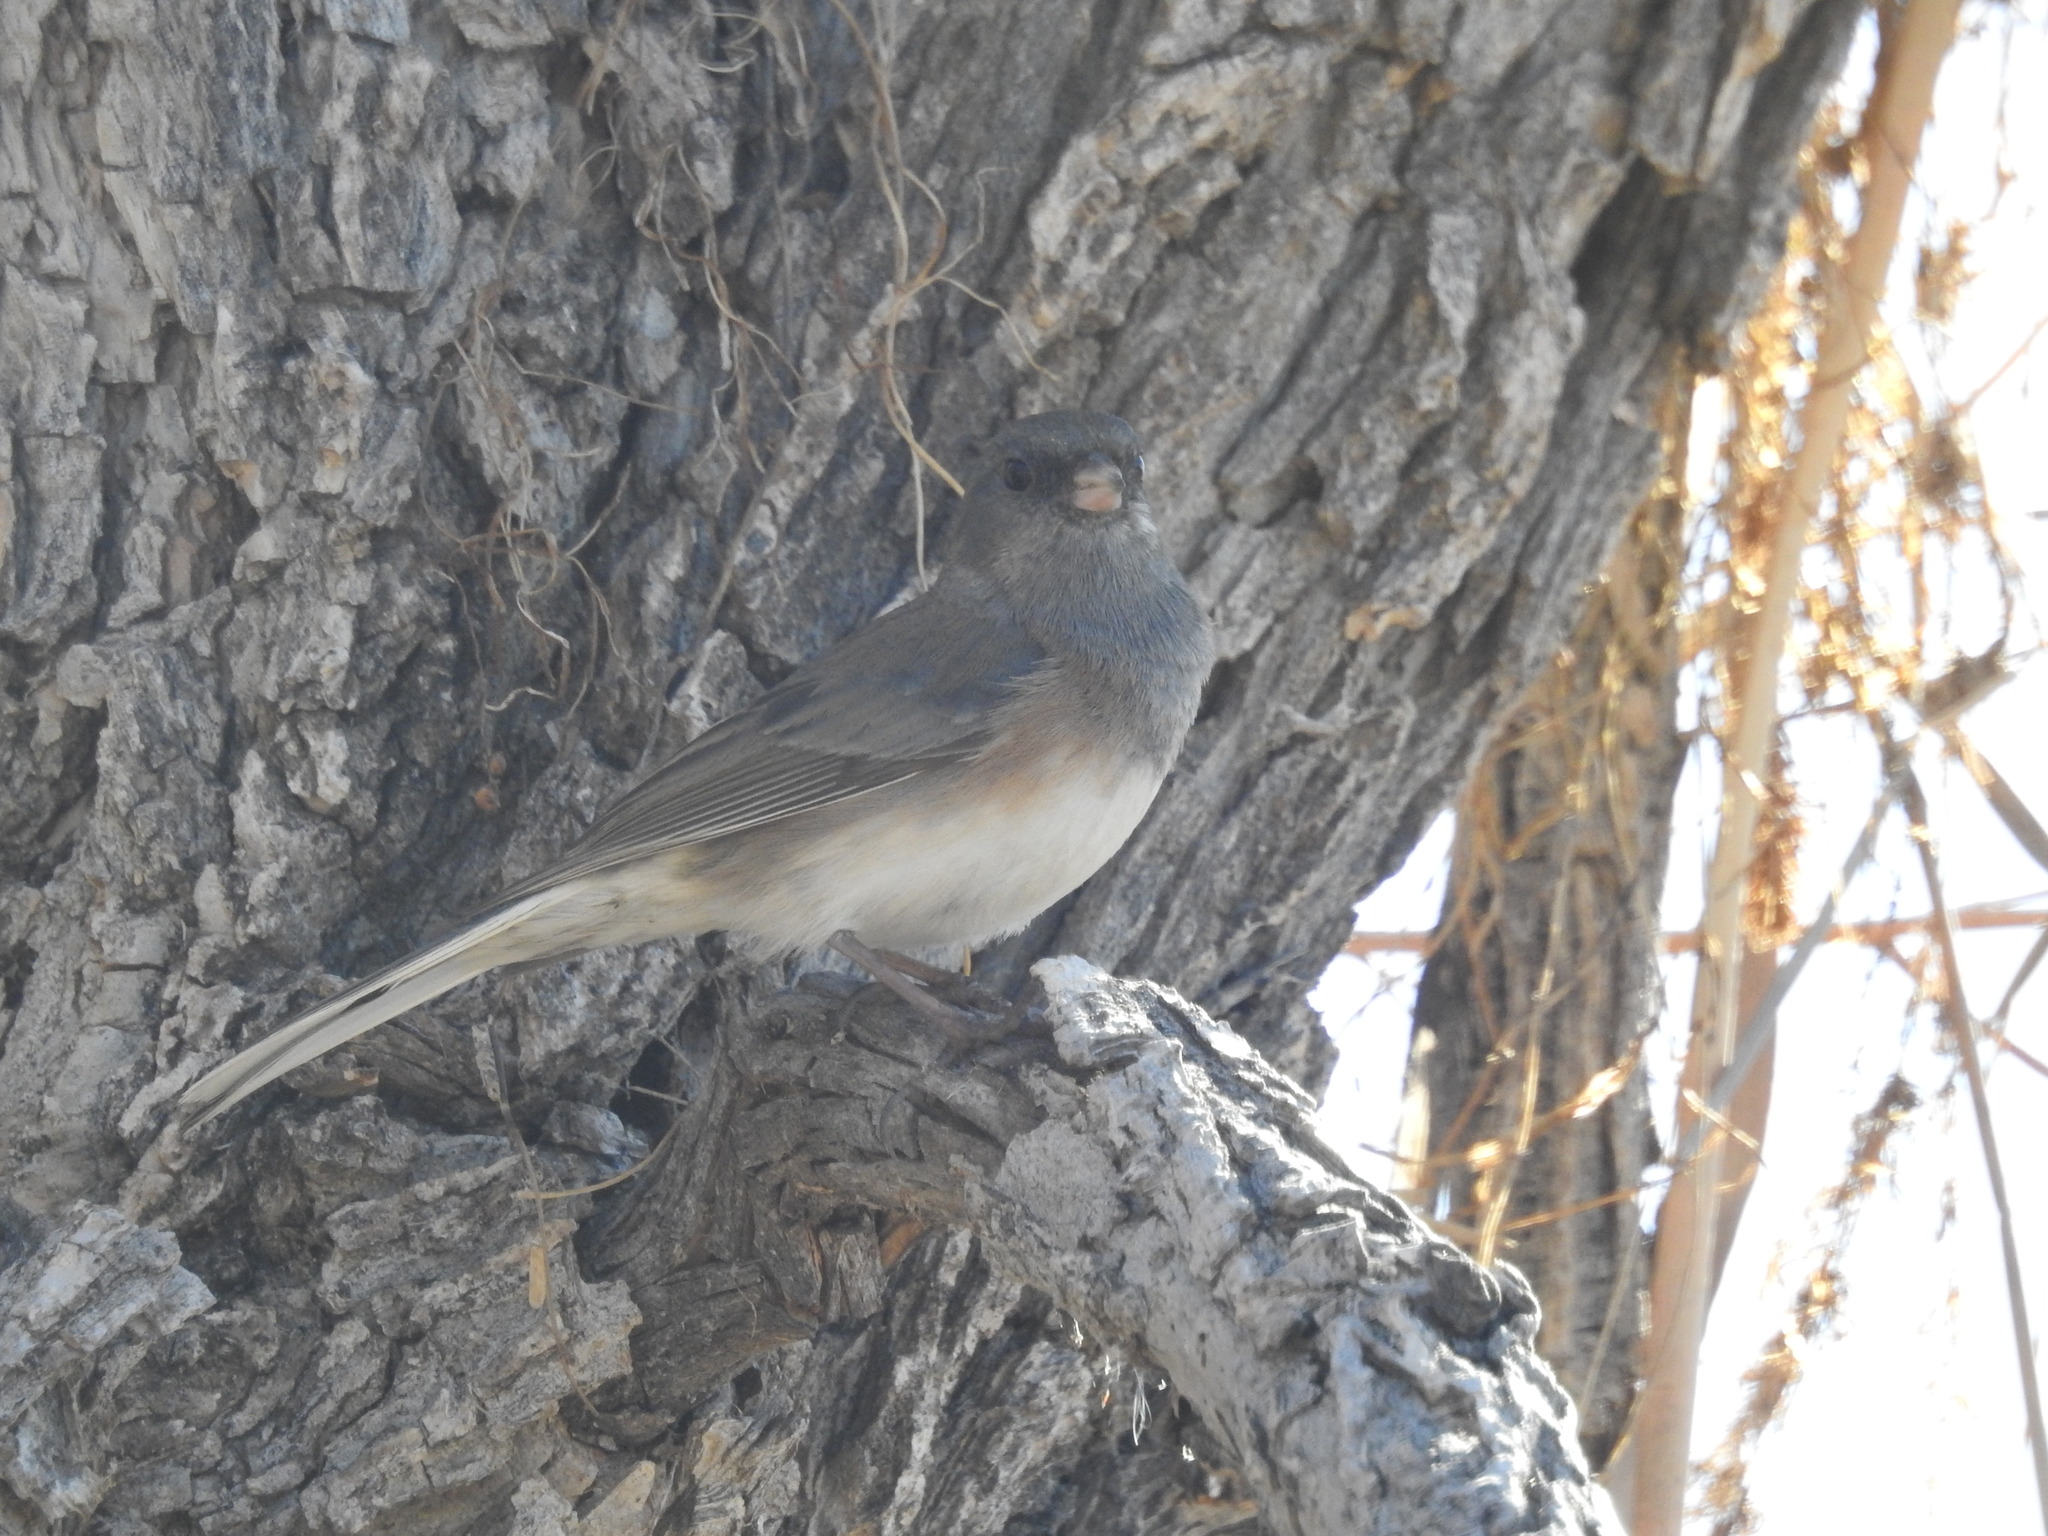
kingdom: Animalia
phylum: Chordata
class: Aves
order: Passeriformes
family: Passerellidae
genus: Junco
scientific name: Junco hyemalis
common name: Dark-eyed junco
